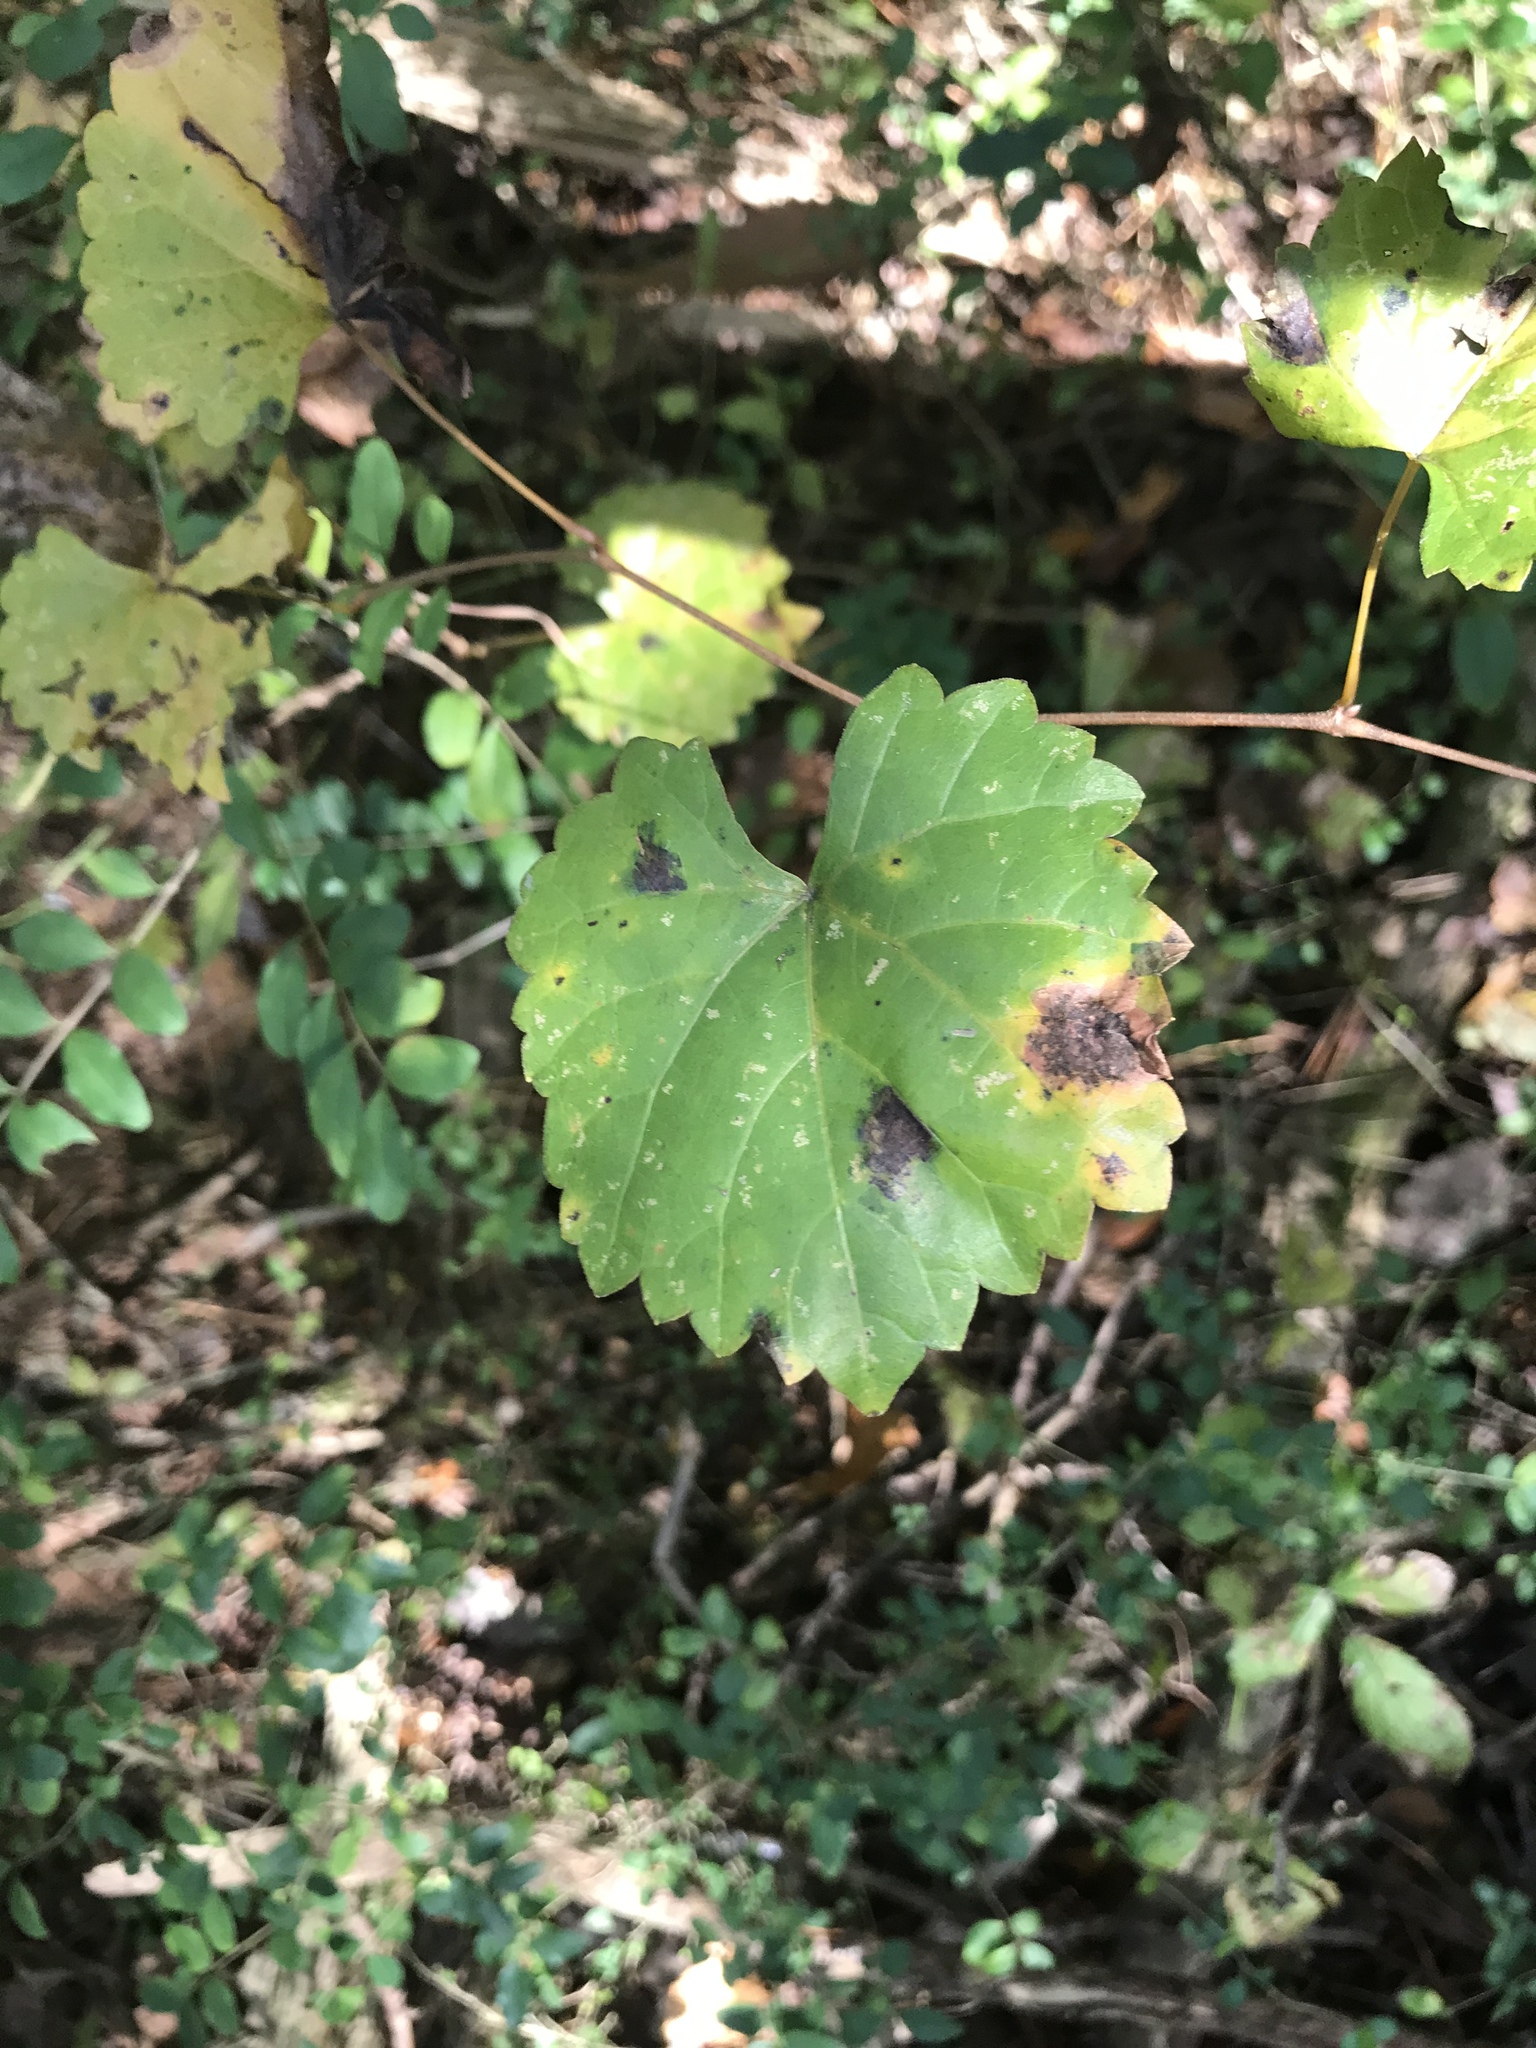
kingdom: Plantae
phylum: Tracheophyta
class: Magnoliopsida
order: Vitales
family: Vitaceae
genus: Vitis
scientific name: Vitis rotundifolia
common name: Muscadine grape
